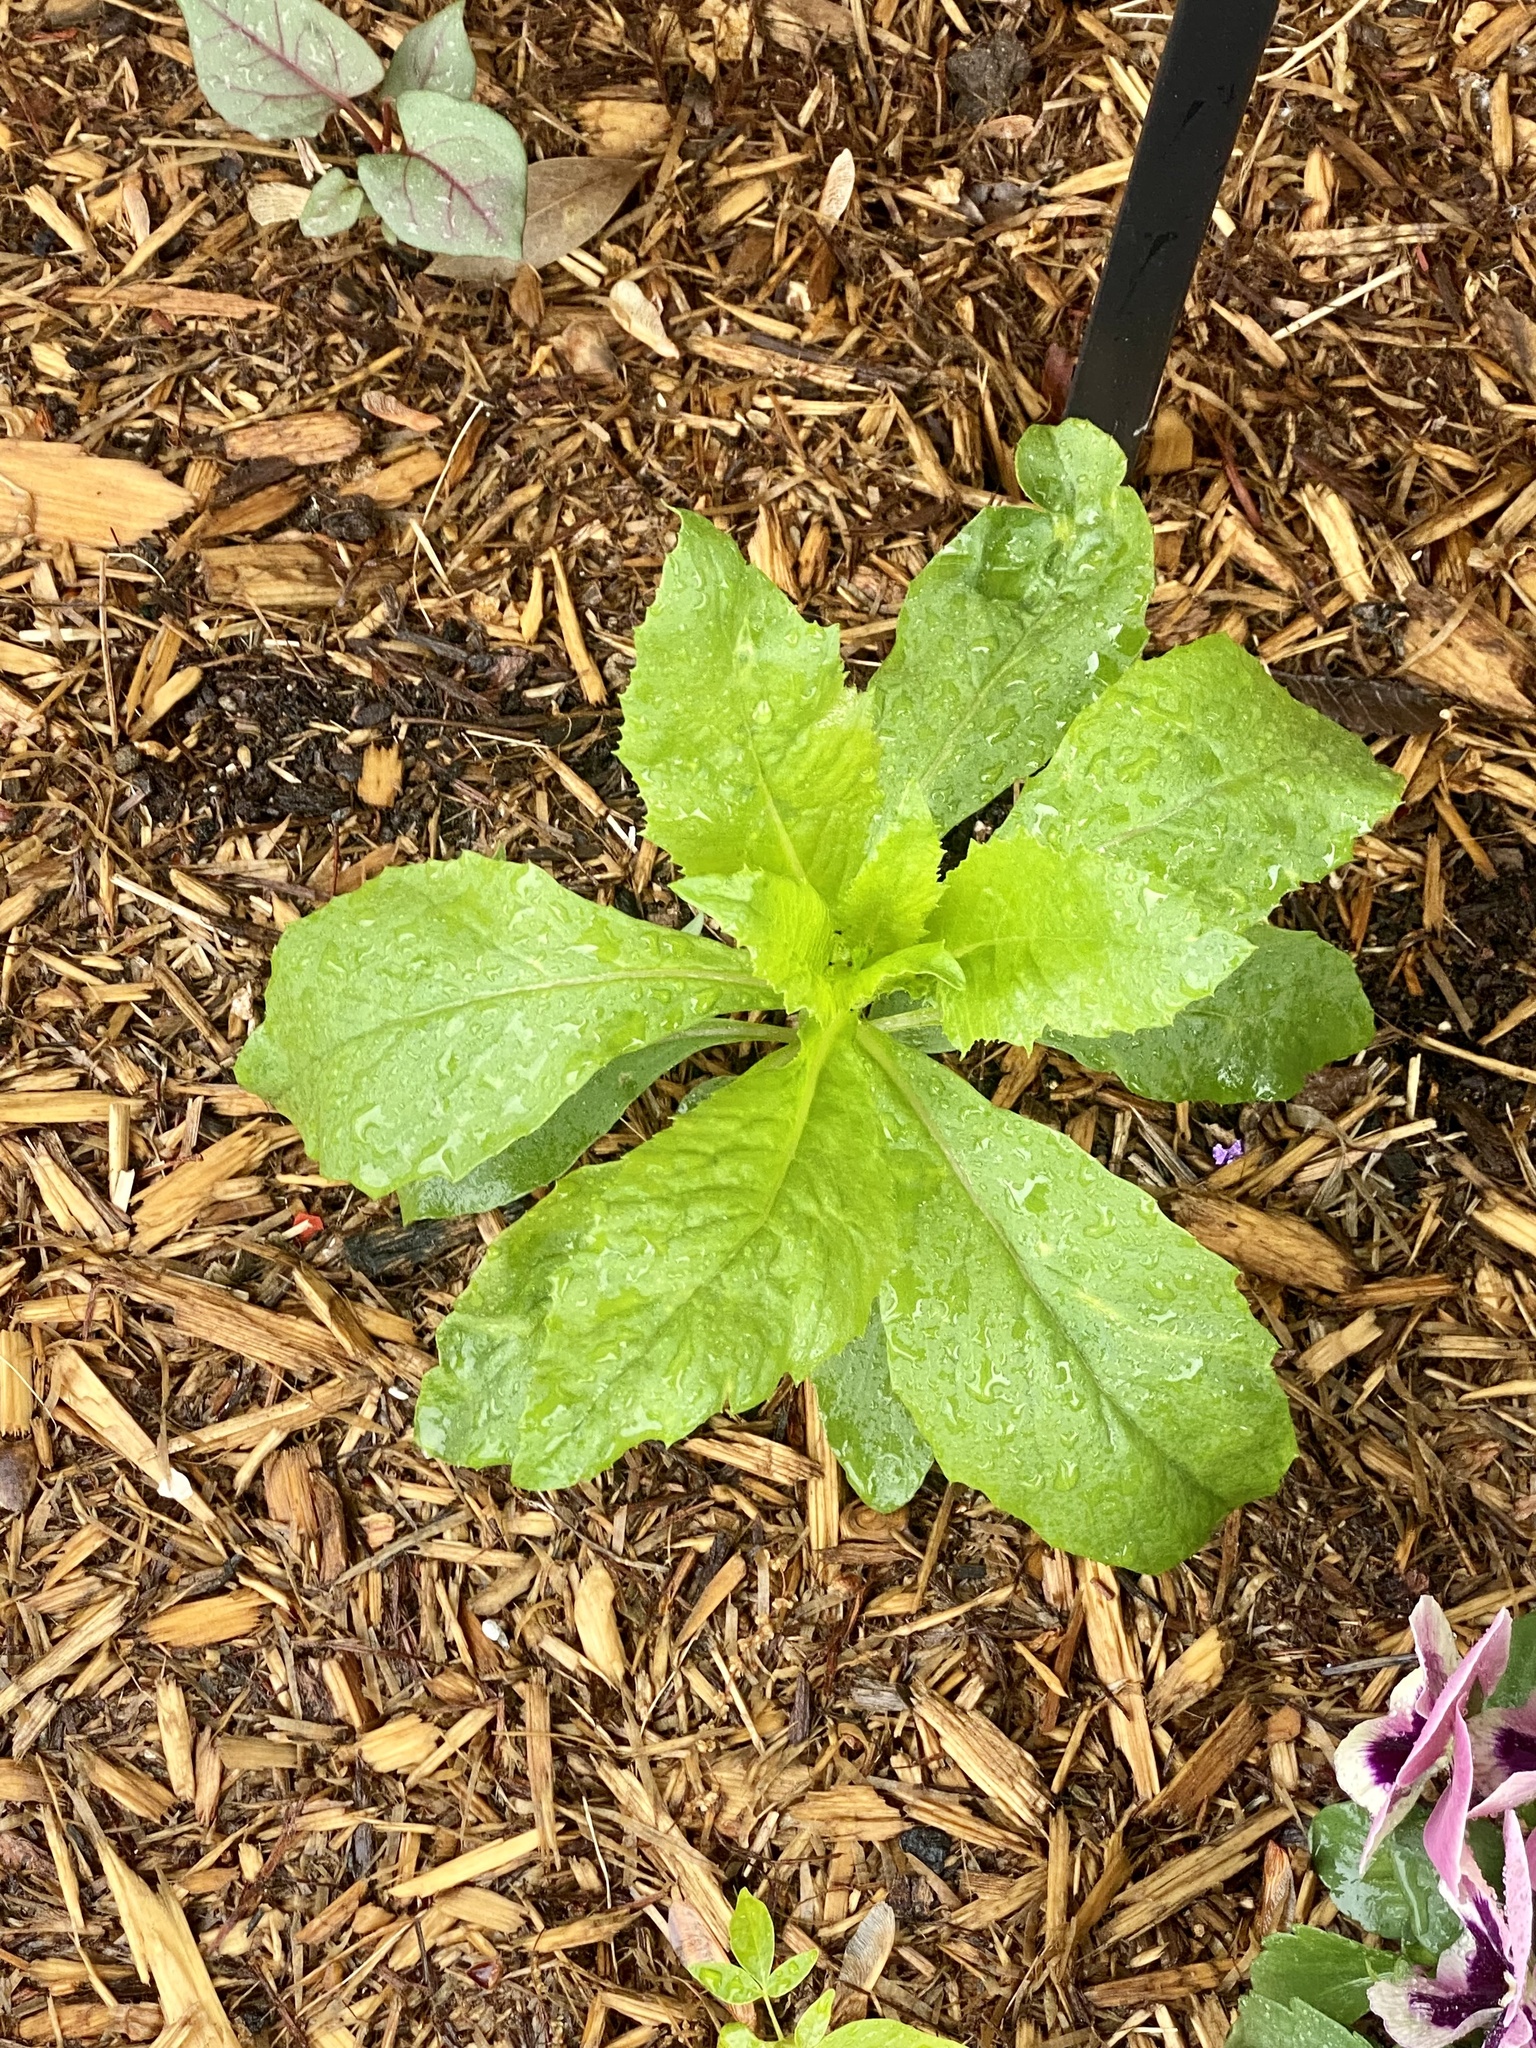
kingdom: Plantae
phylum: Tracheophyta
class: Magnoliopsida
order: Asterales
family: Asteraceae
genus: Erechtites
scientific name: Erechtites hieraciifolius
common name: American burnweed
